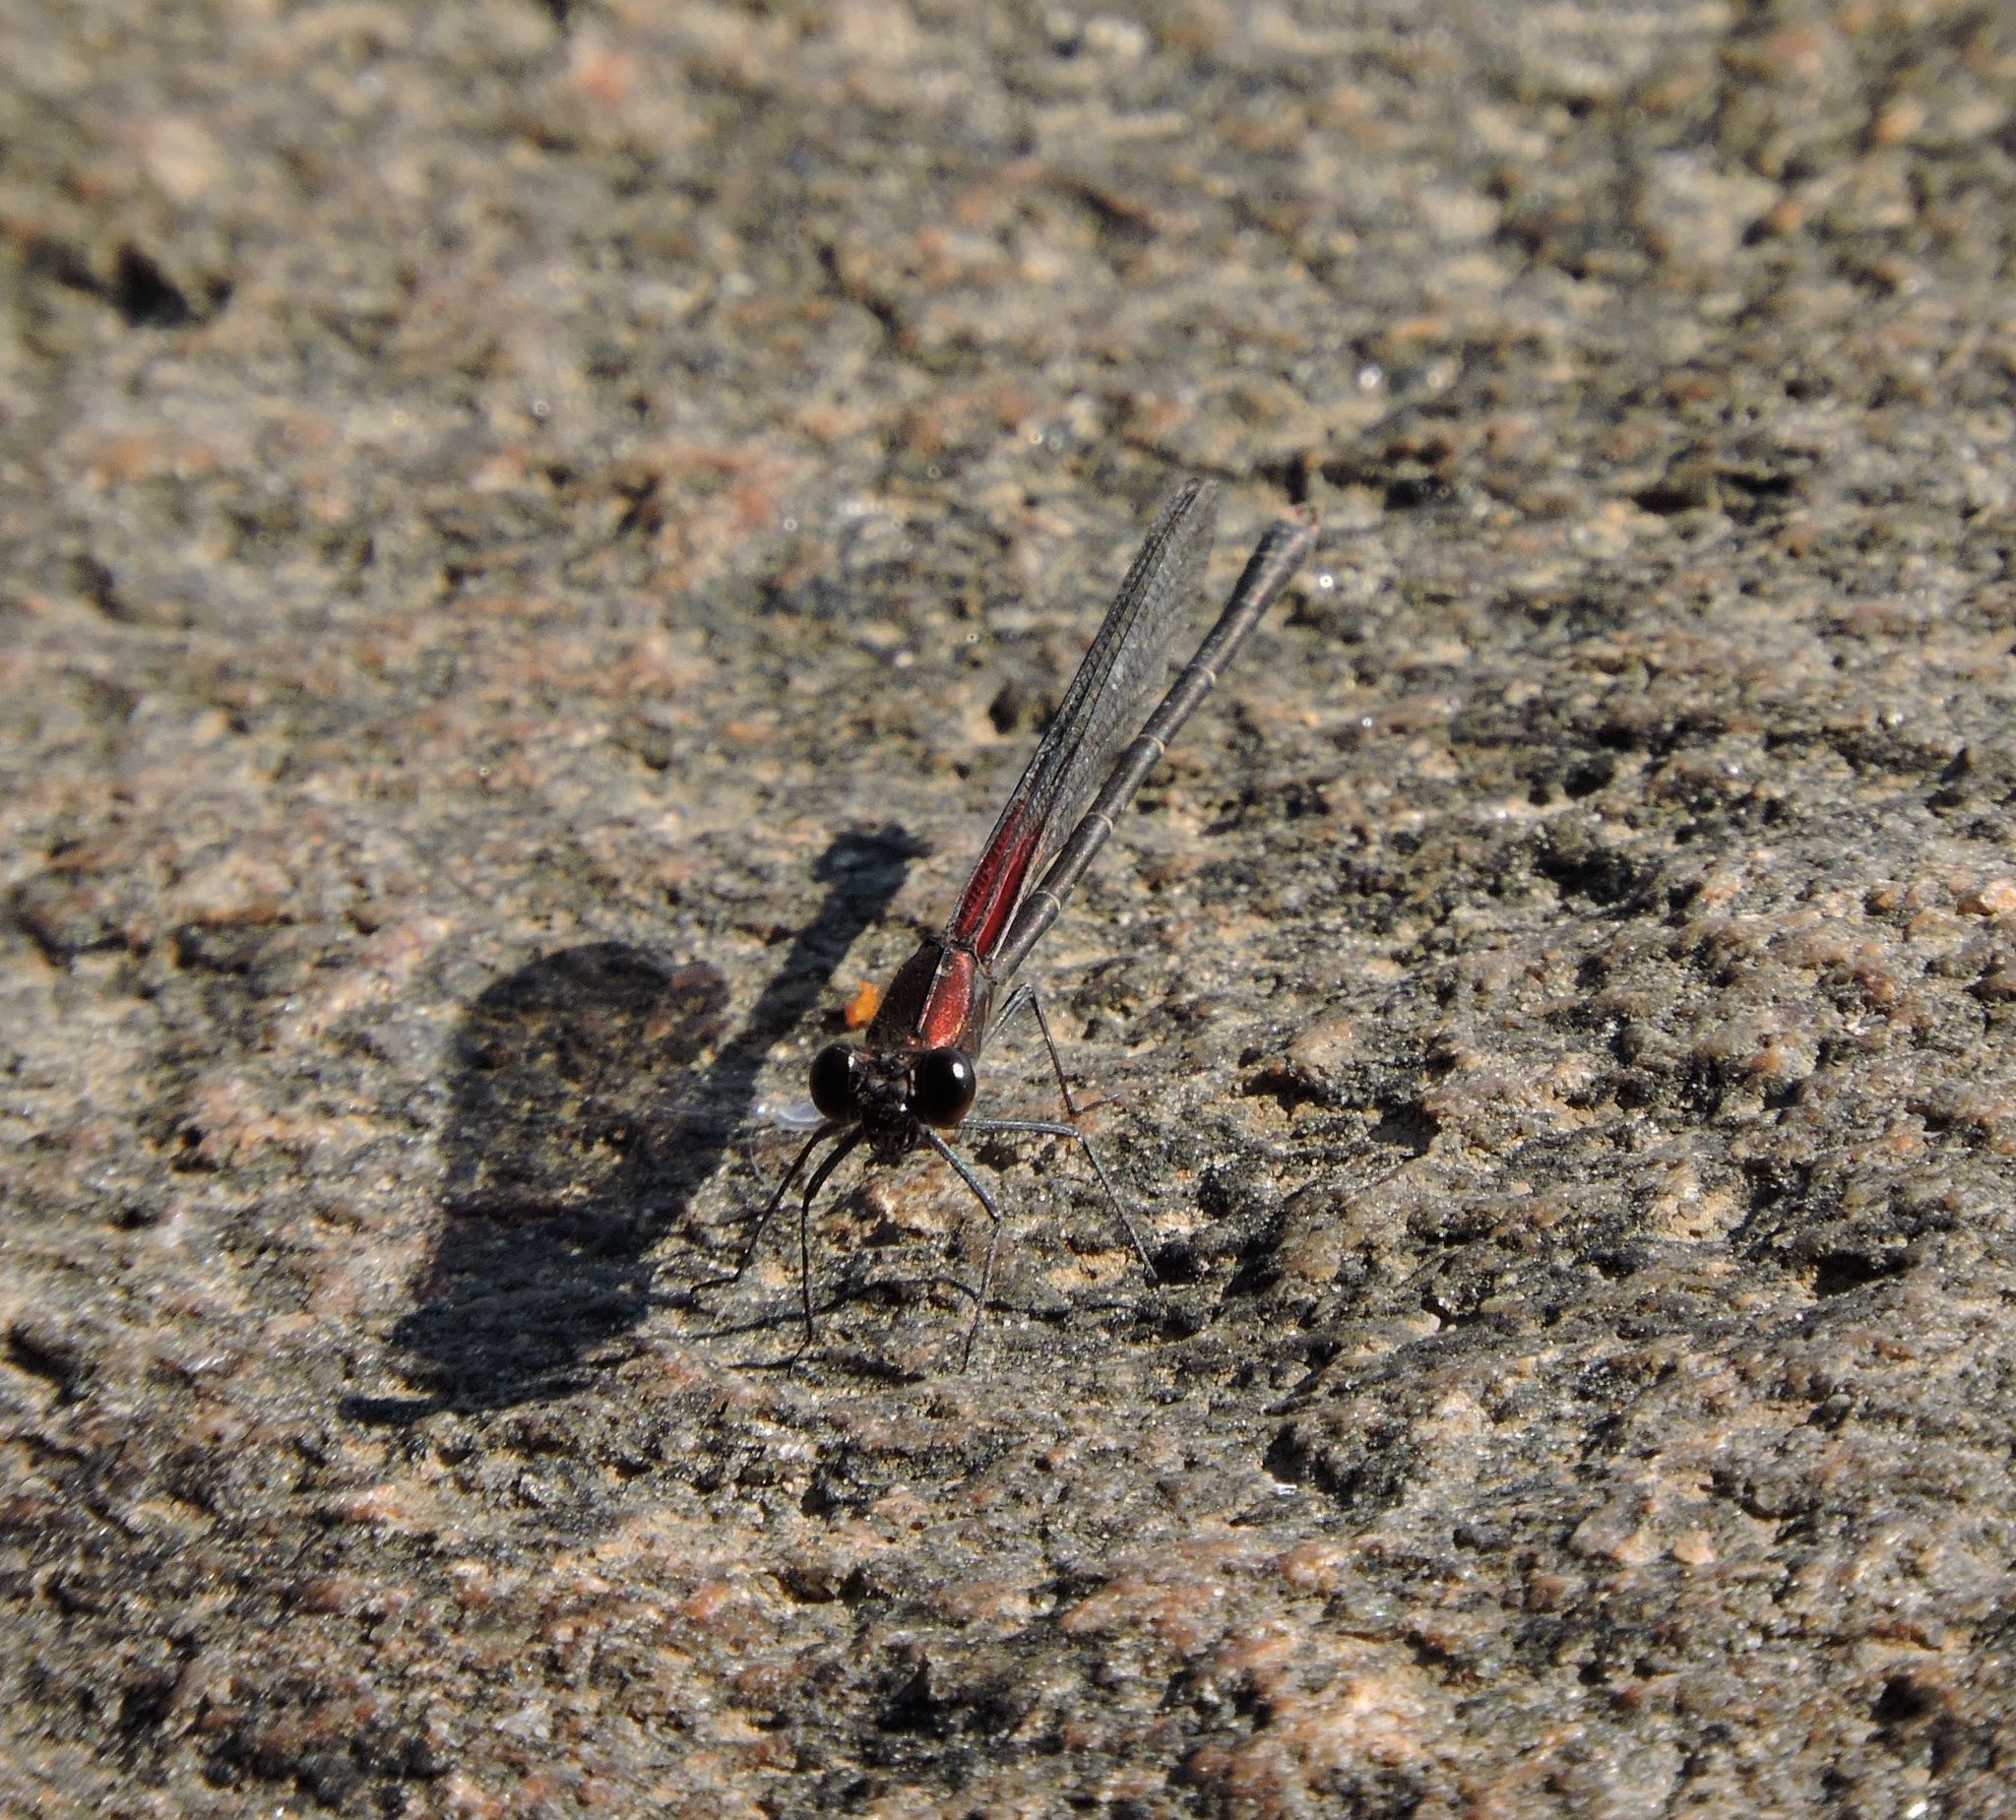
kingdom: Animalia
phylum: Arthropoda
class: Insecta
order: Odonata
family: Calopterygidae
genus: Hetaerina
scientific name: Hetaerina americana
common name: American rubyspot
